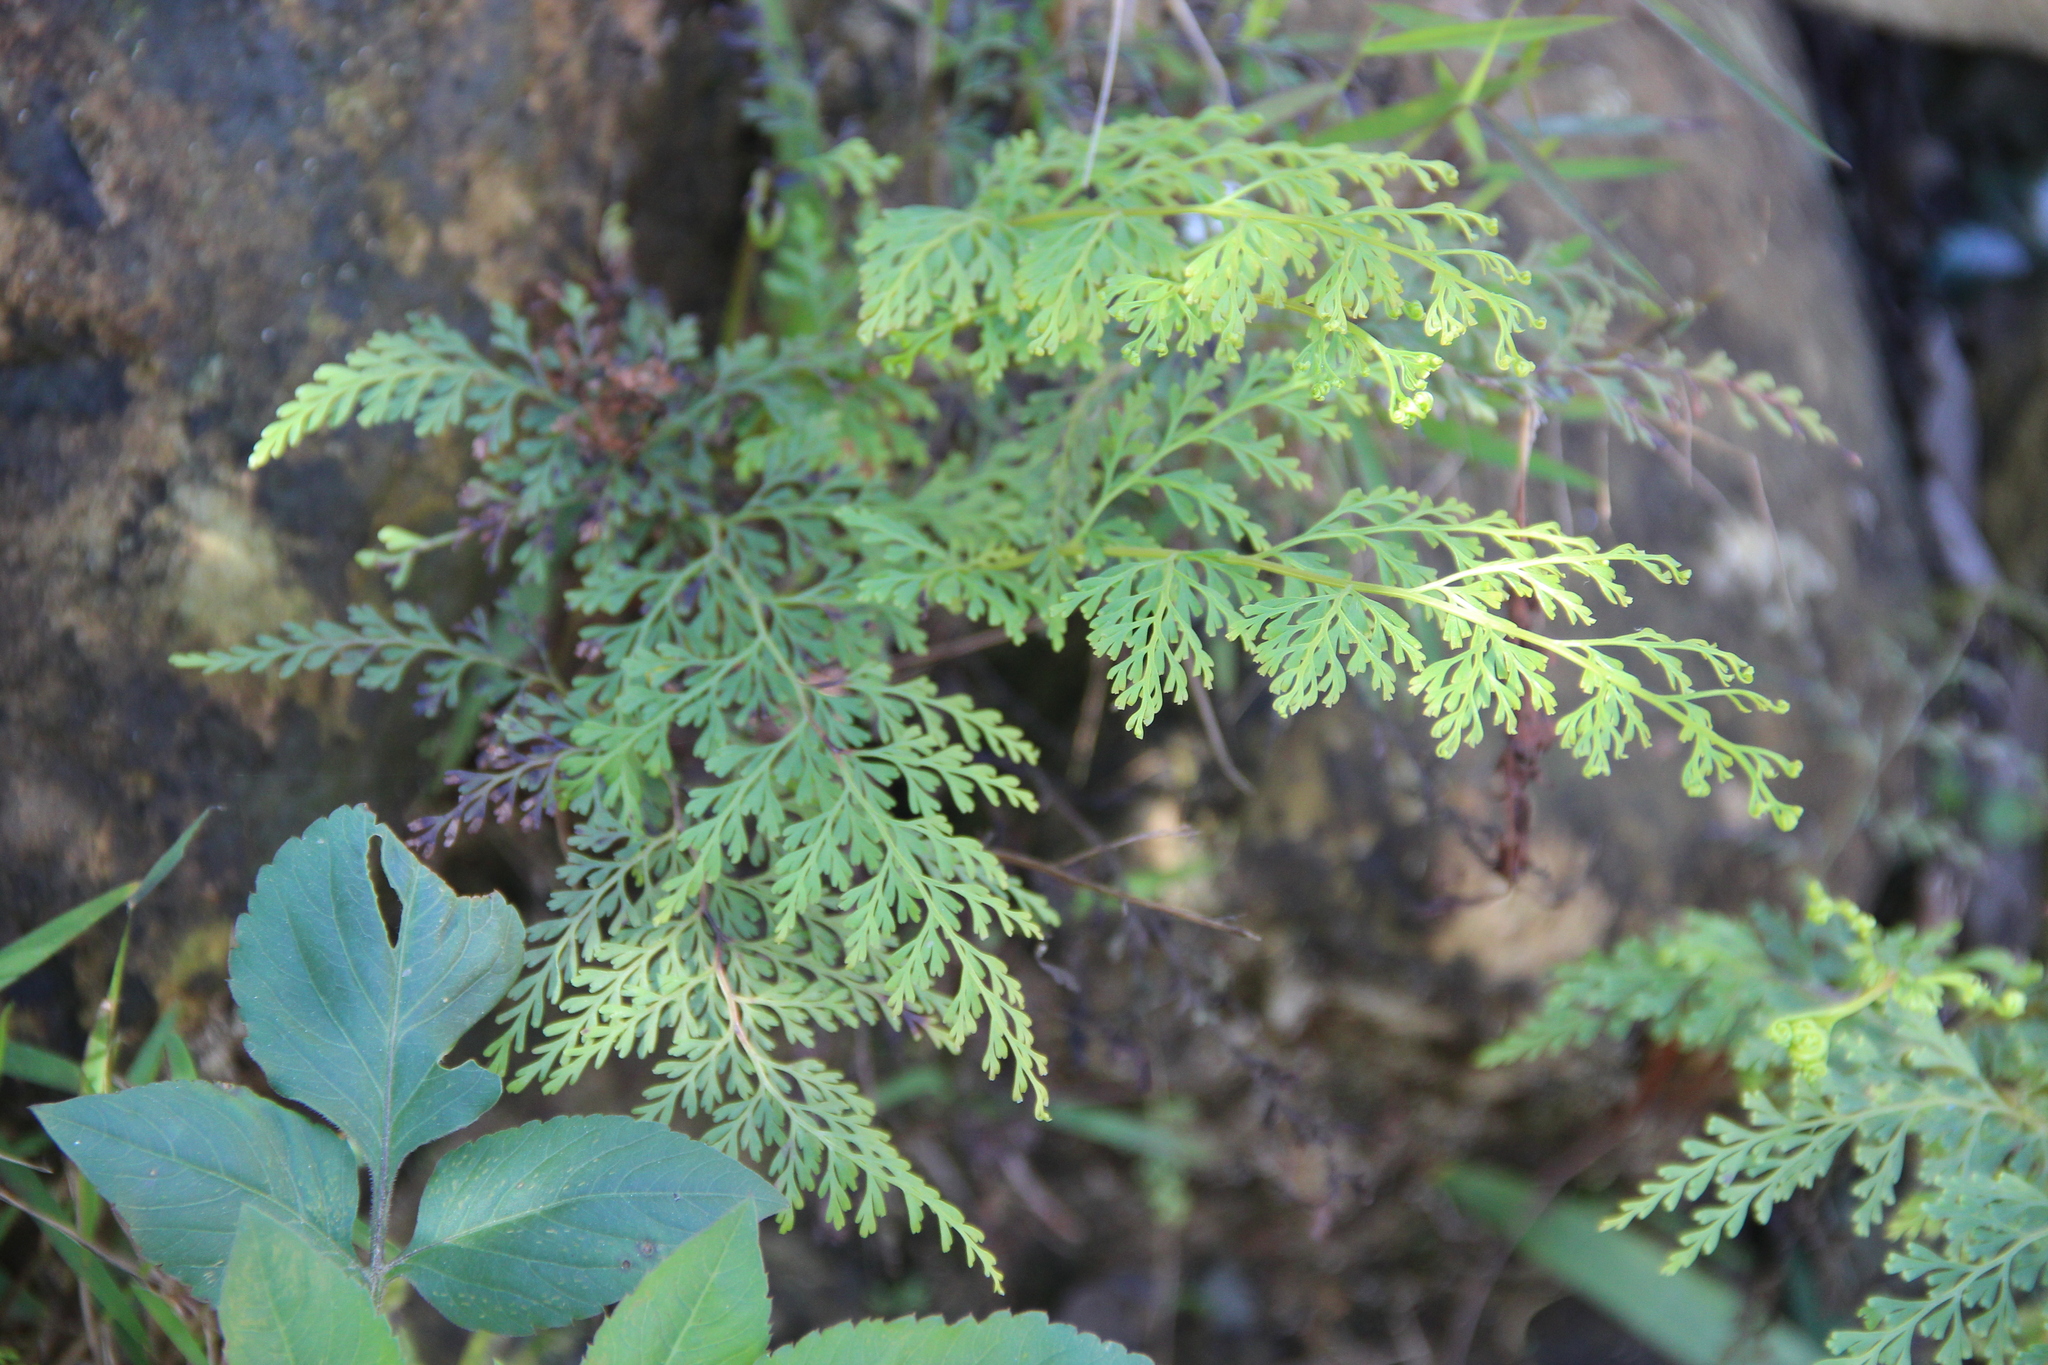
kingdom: Plantae
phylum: Tracheophyta
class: Polypodiopsida
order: Polypodiales
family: Lindsaeaceae
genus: Odontosoria
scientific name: Odontosoria chinensis
